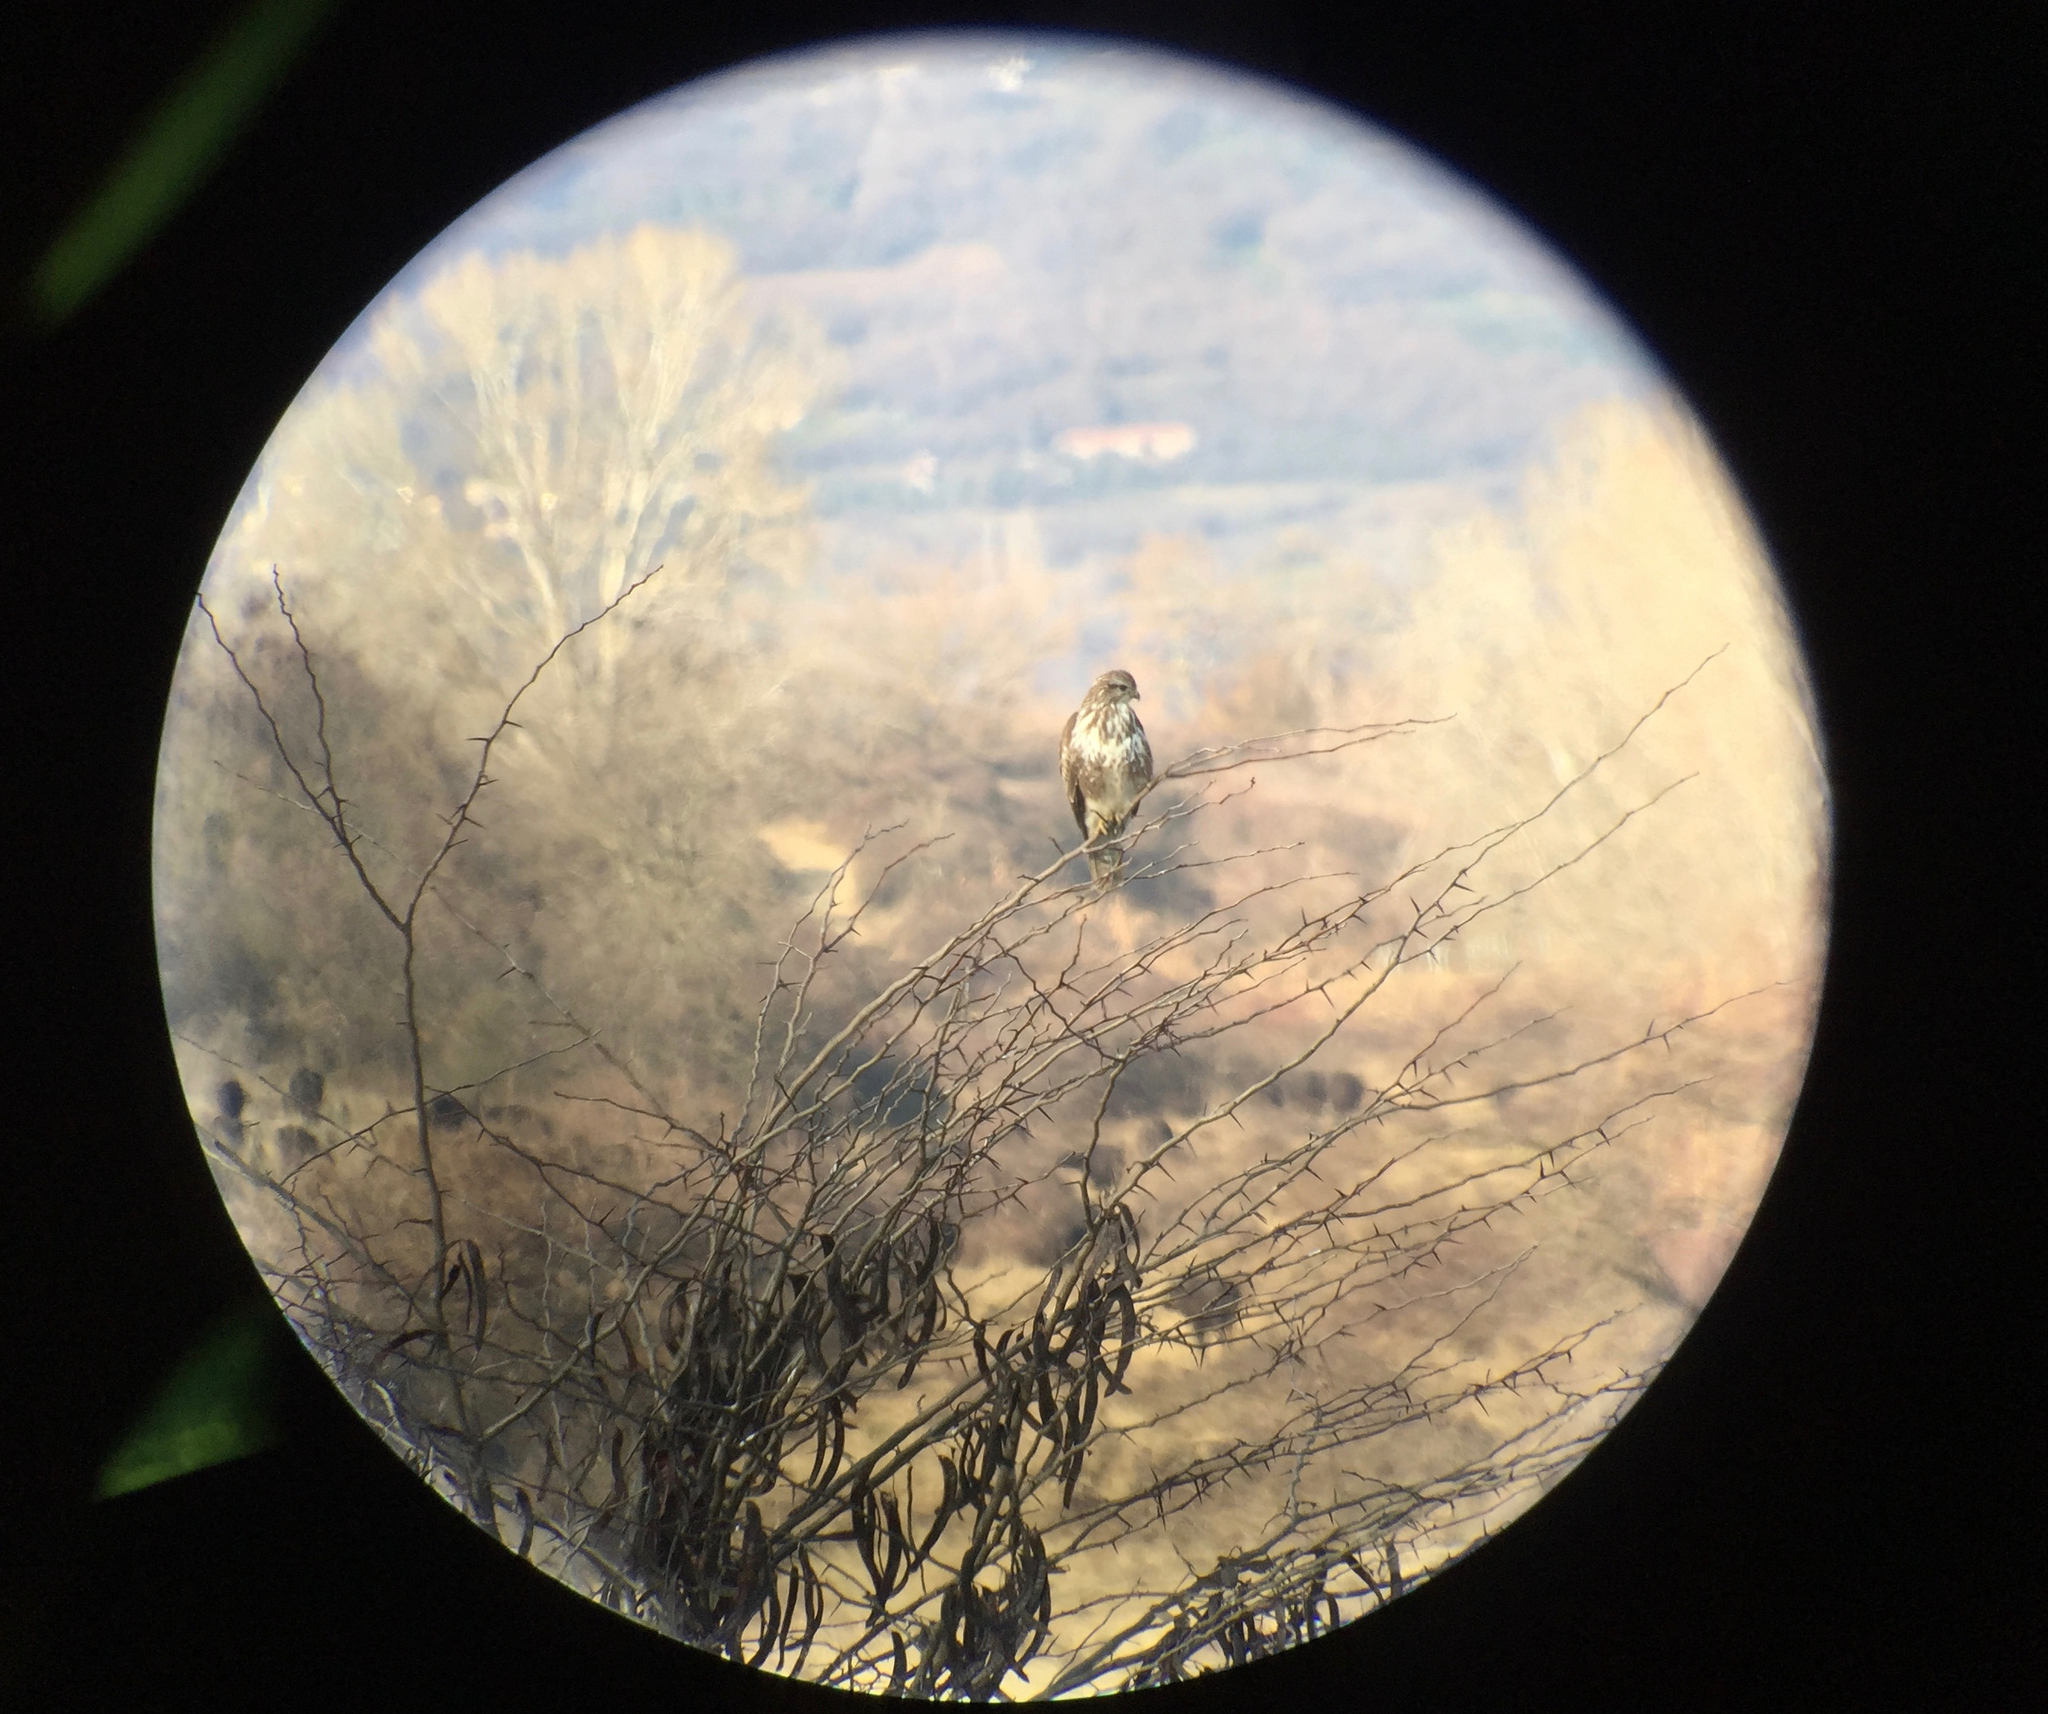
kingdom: Animalia
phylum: Chordata
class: Aves
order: Accipitriformes
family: Accipitridae
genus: Buteo
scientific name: Buteo buteo
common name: Common buzzard
